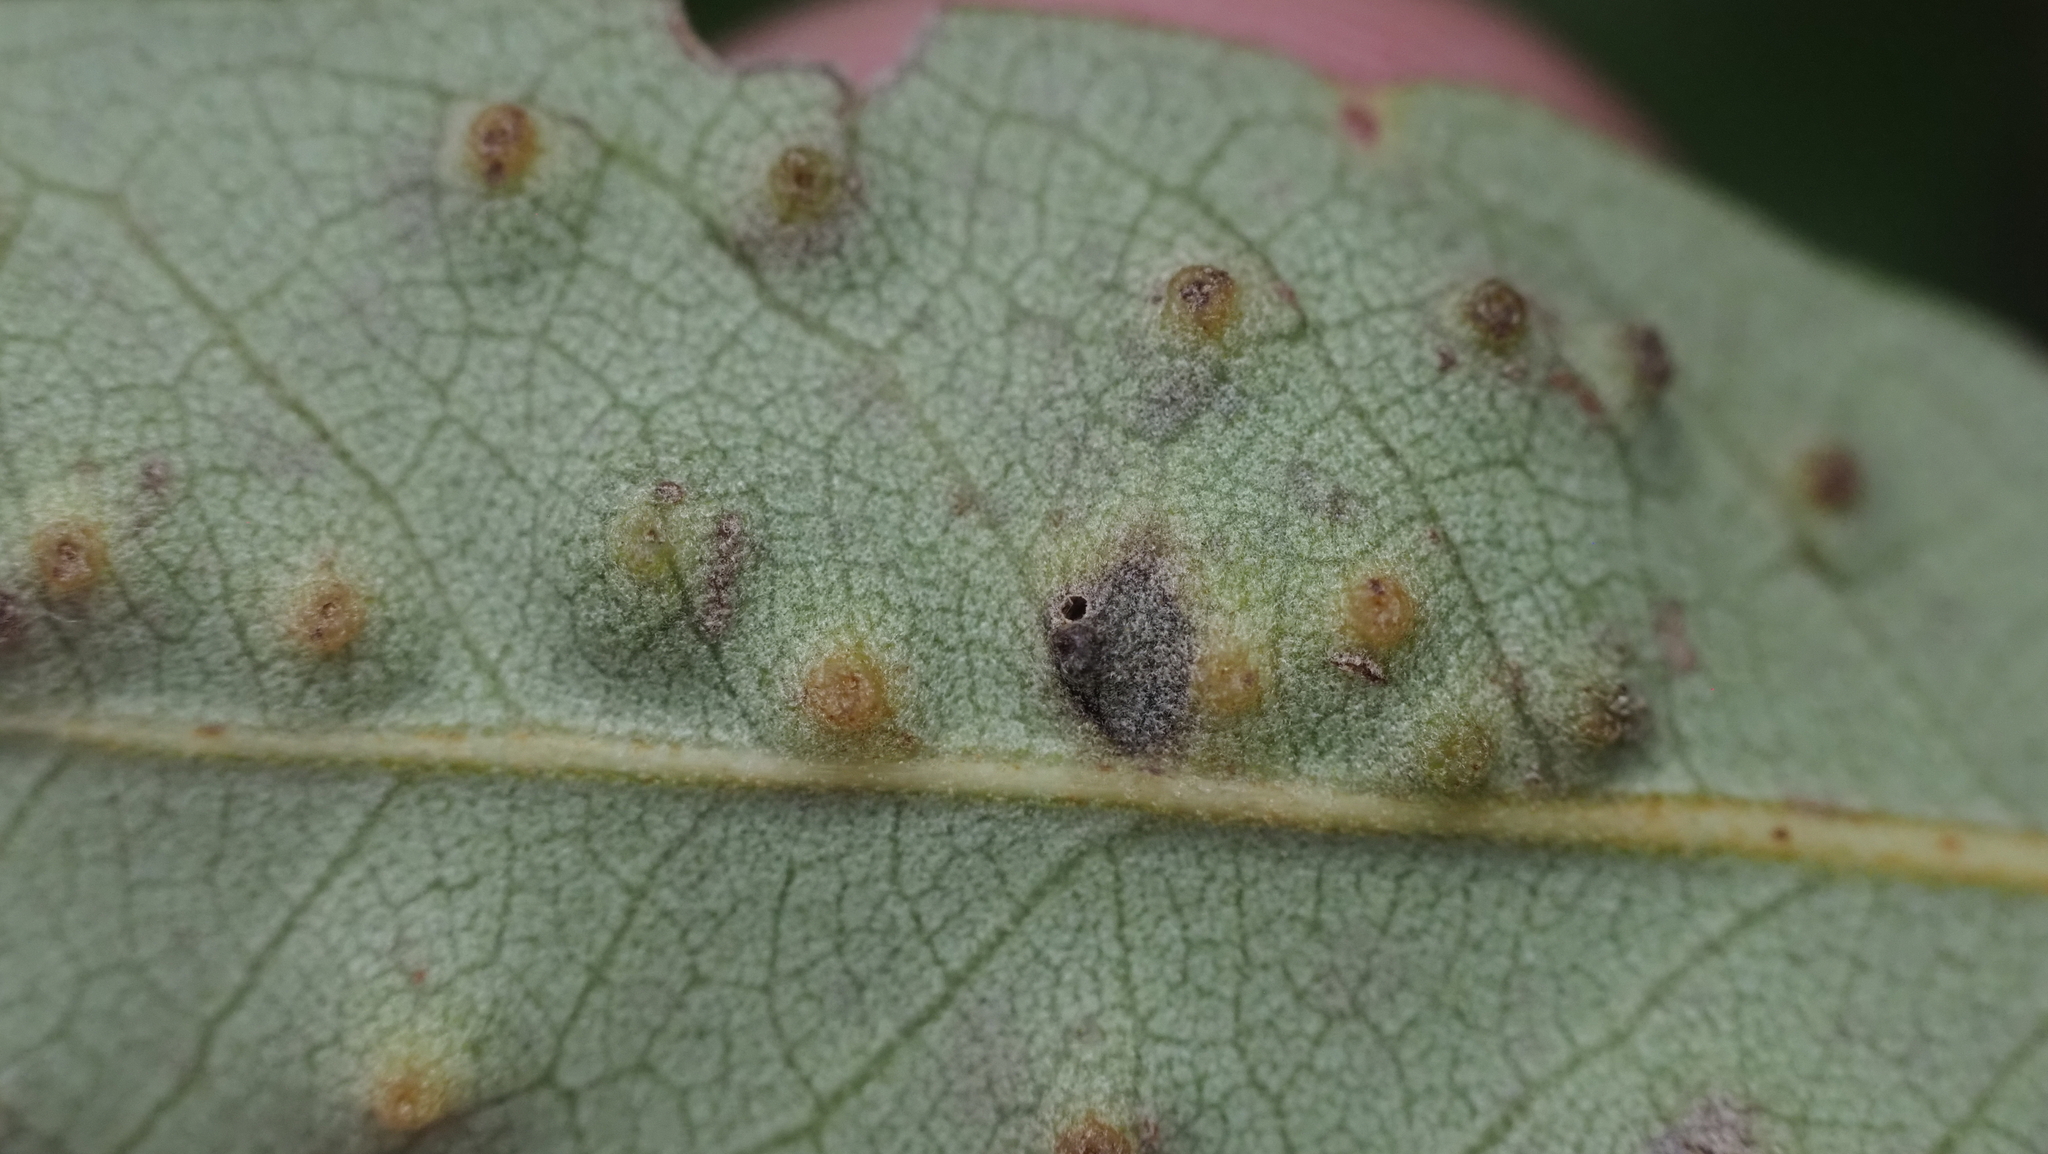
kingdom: Animalia
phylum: Arthropoda
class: Insecta
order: Hymenoptera
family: Cynipidae
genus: Neuroterus
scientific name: Neuroterus
